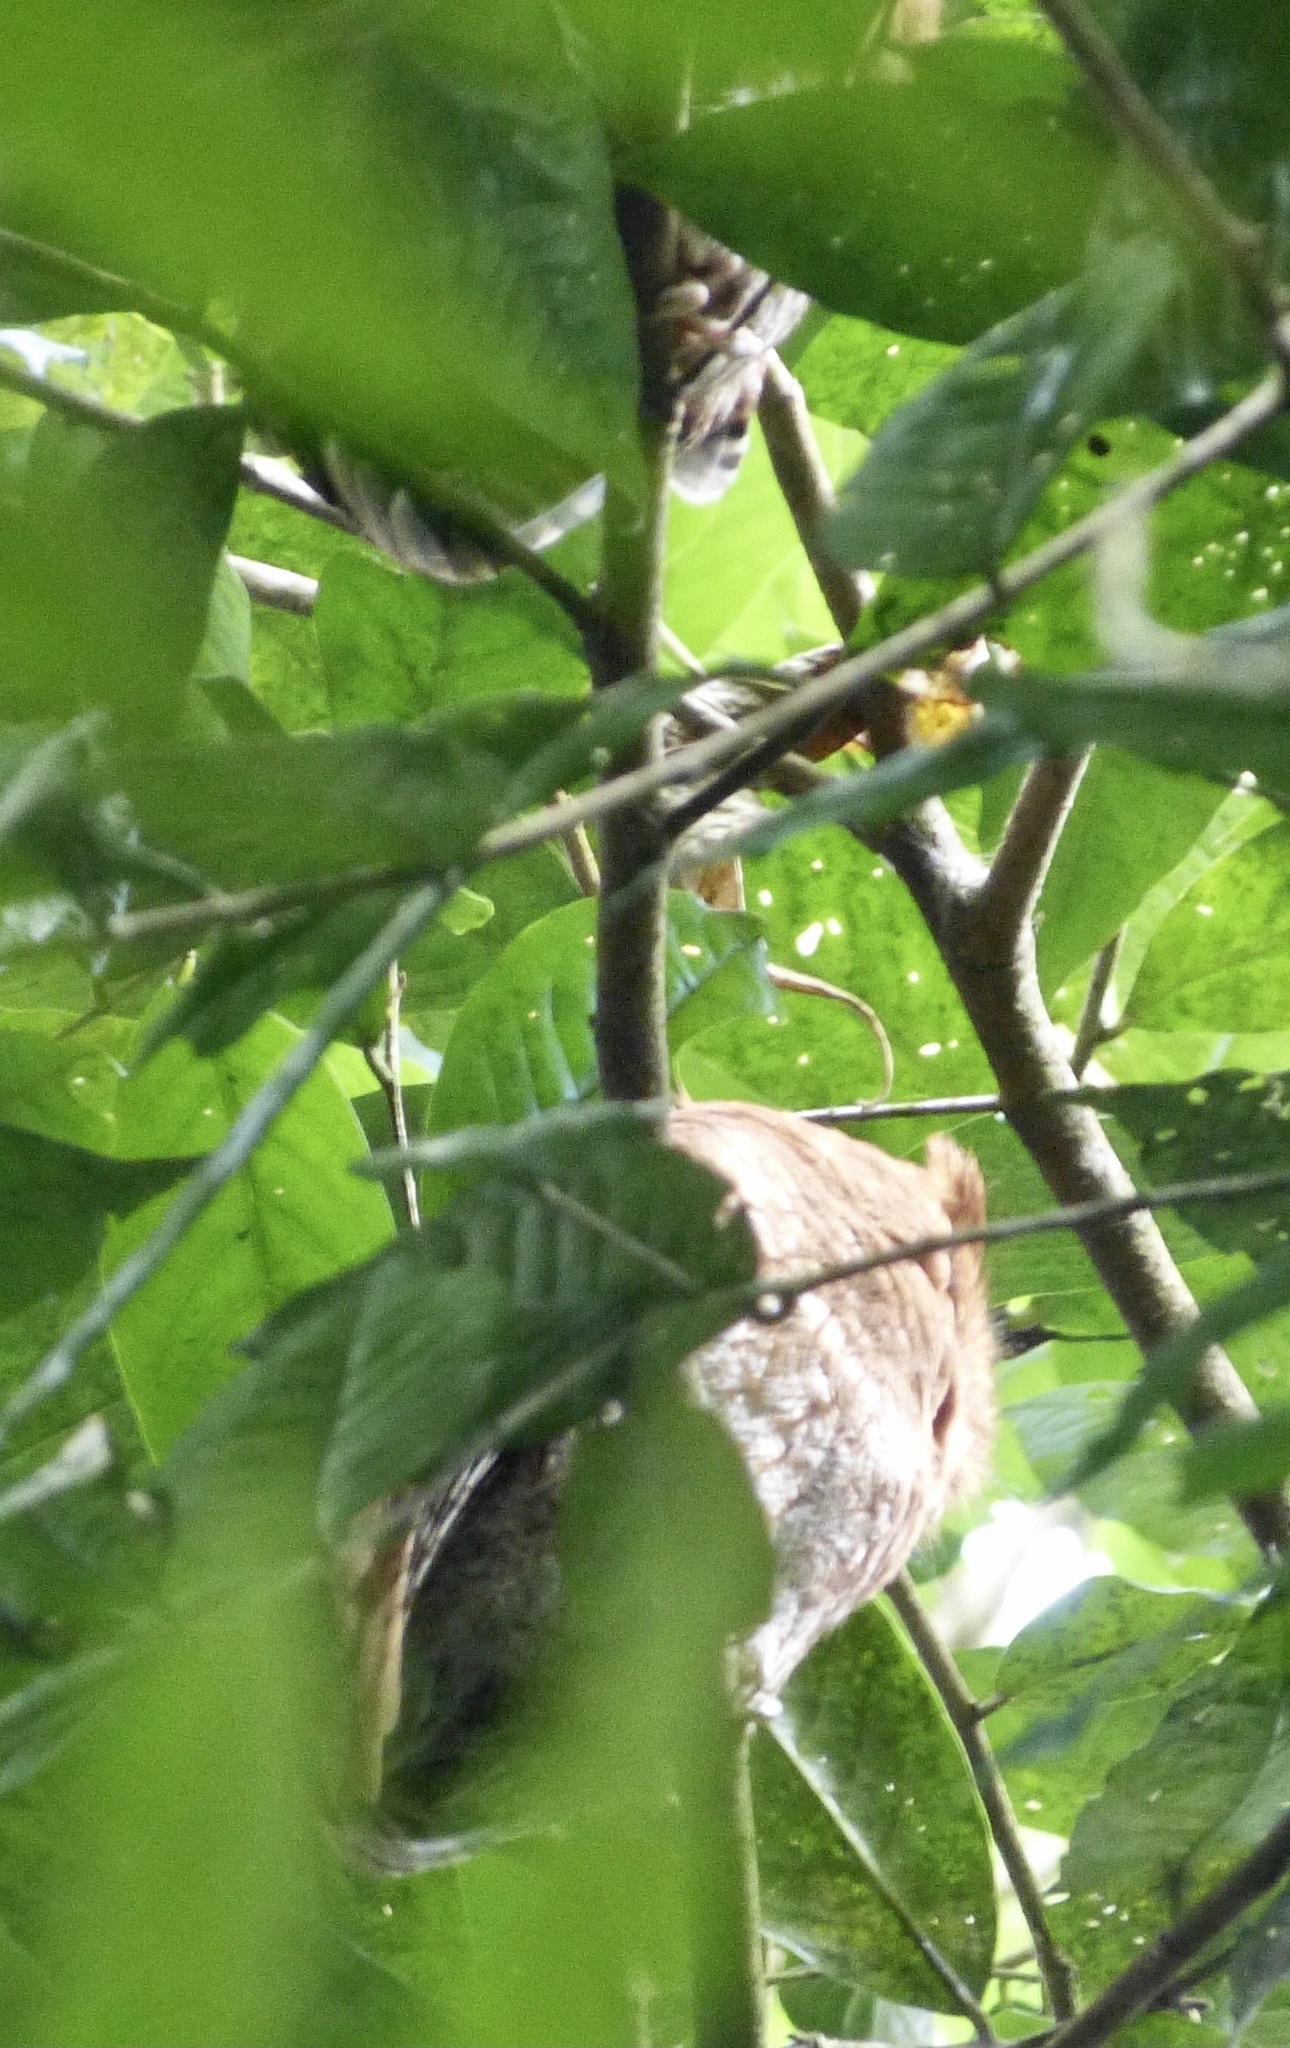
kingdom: Animalia
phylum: Chordata
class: Aves
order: Strigiformes
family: Strigidae
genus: Megascops
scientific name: Megascops gilesi
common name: Santa marta screech owl
